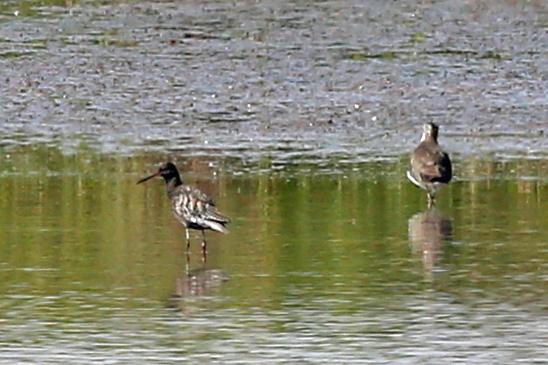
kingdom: Animalia
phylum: Chordata
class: Aves
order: Charadriiformes
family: Scolopacidae
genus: Tringa
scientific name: Tringa erythropus
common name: Spotted redshank
